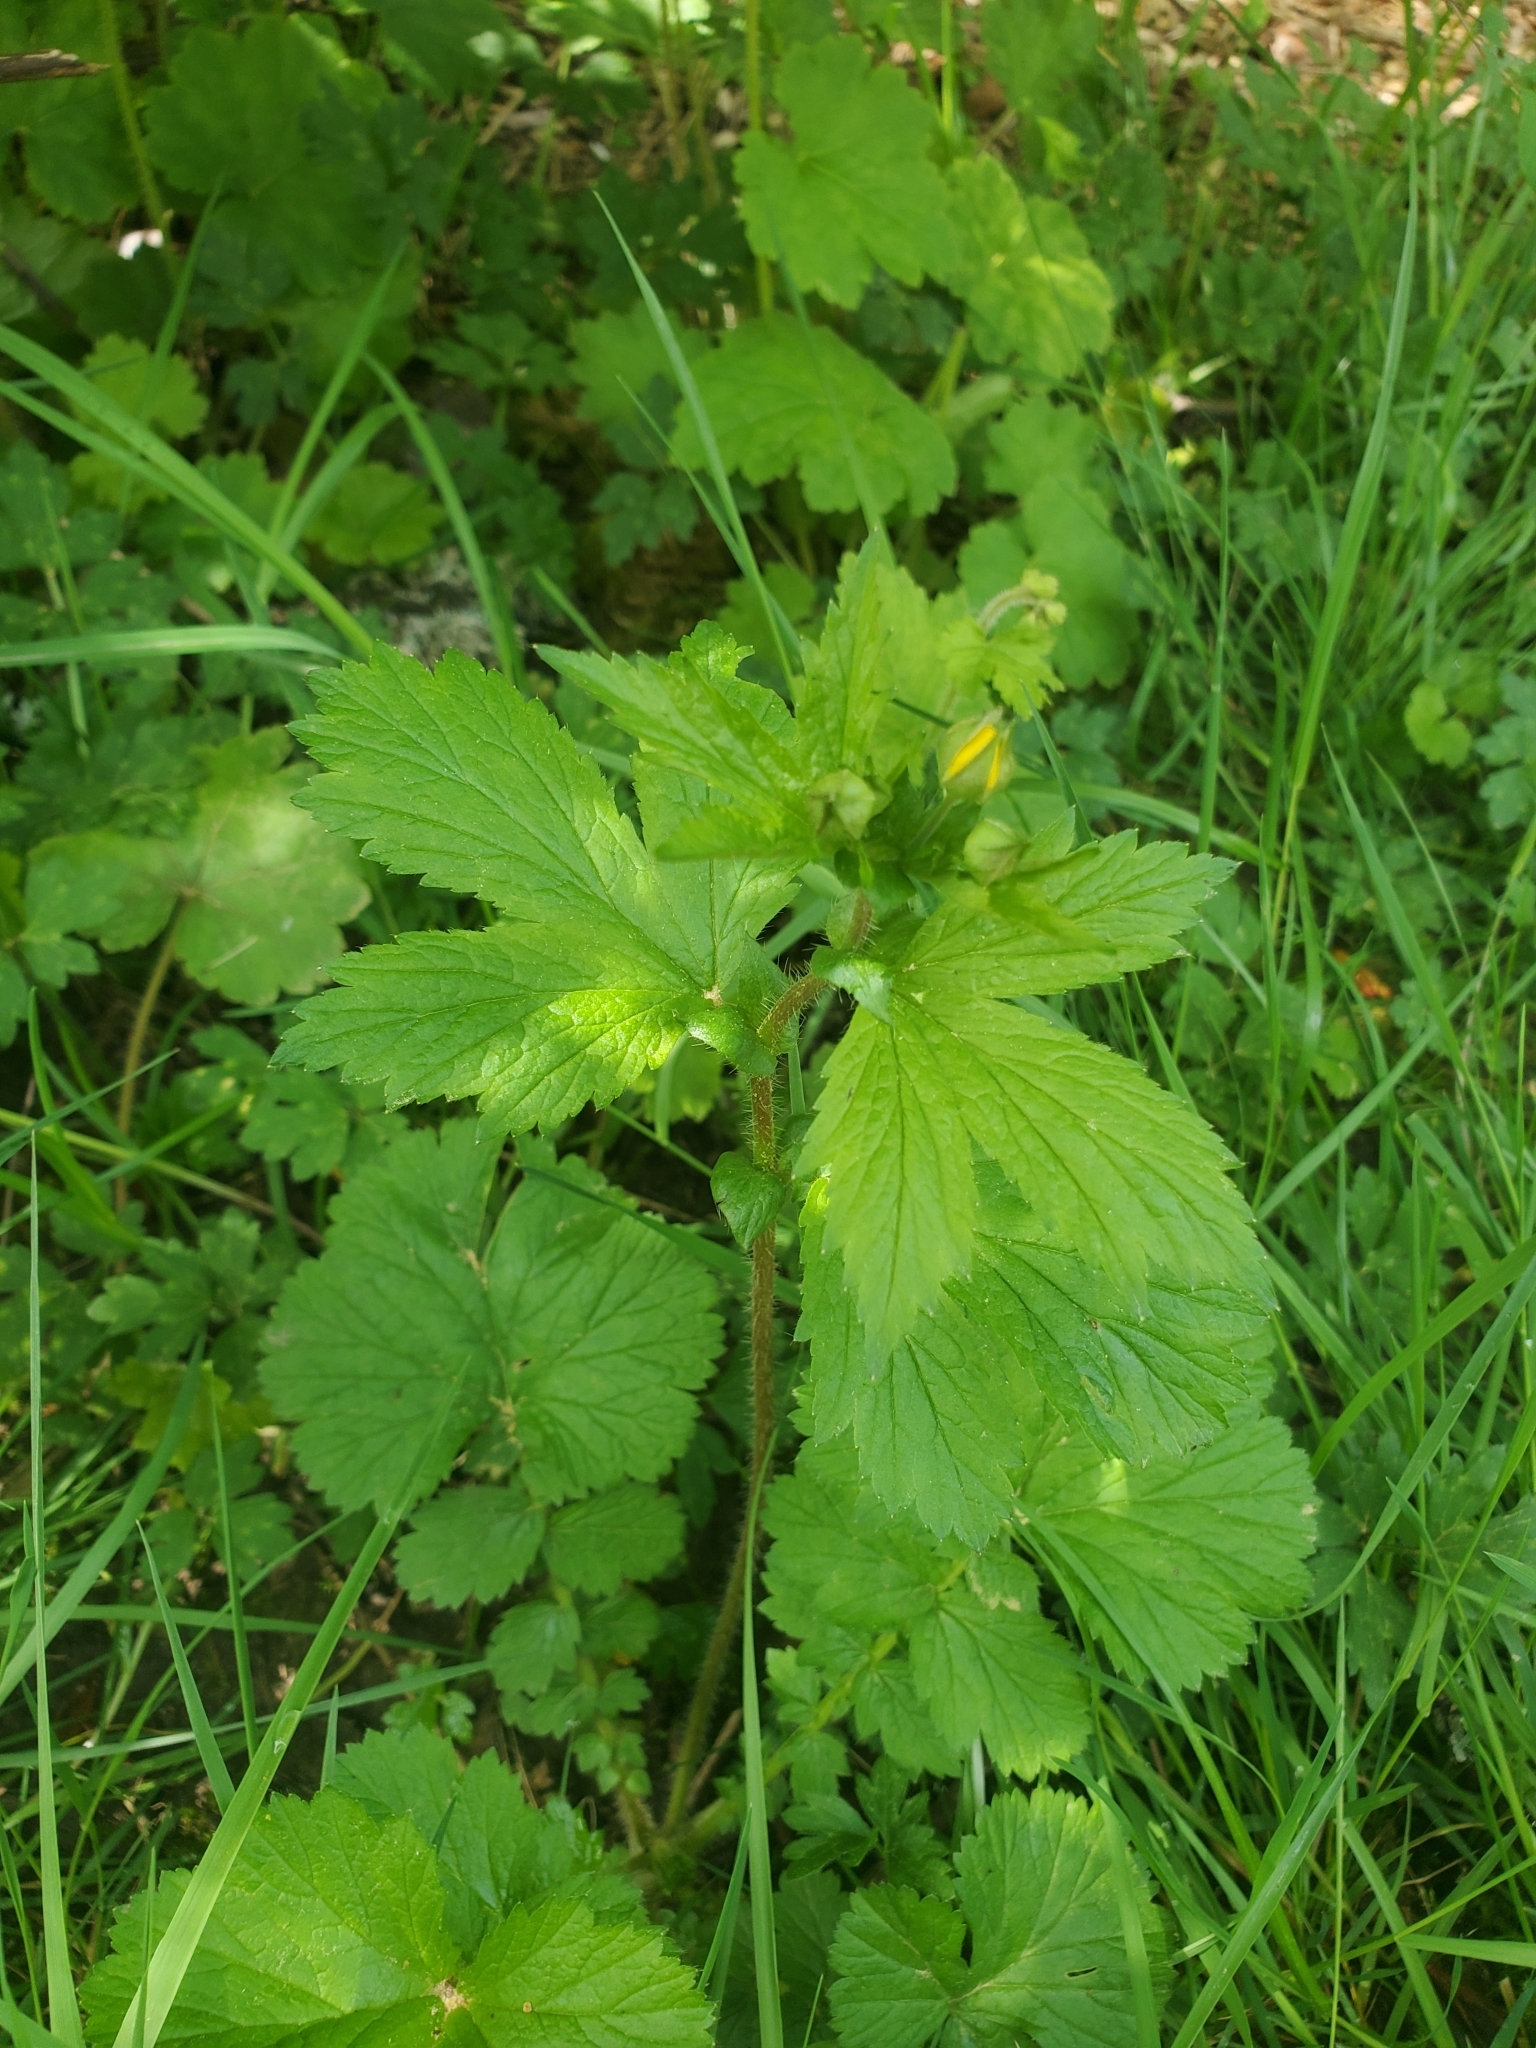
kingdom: Plantae
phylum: Tracheophyta
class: Magnoliopsida
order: Rosales
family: Rosaceae
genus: Geum
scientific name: Geum macrophyllum
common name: Large-leaved avens
